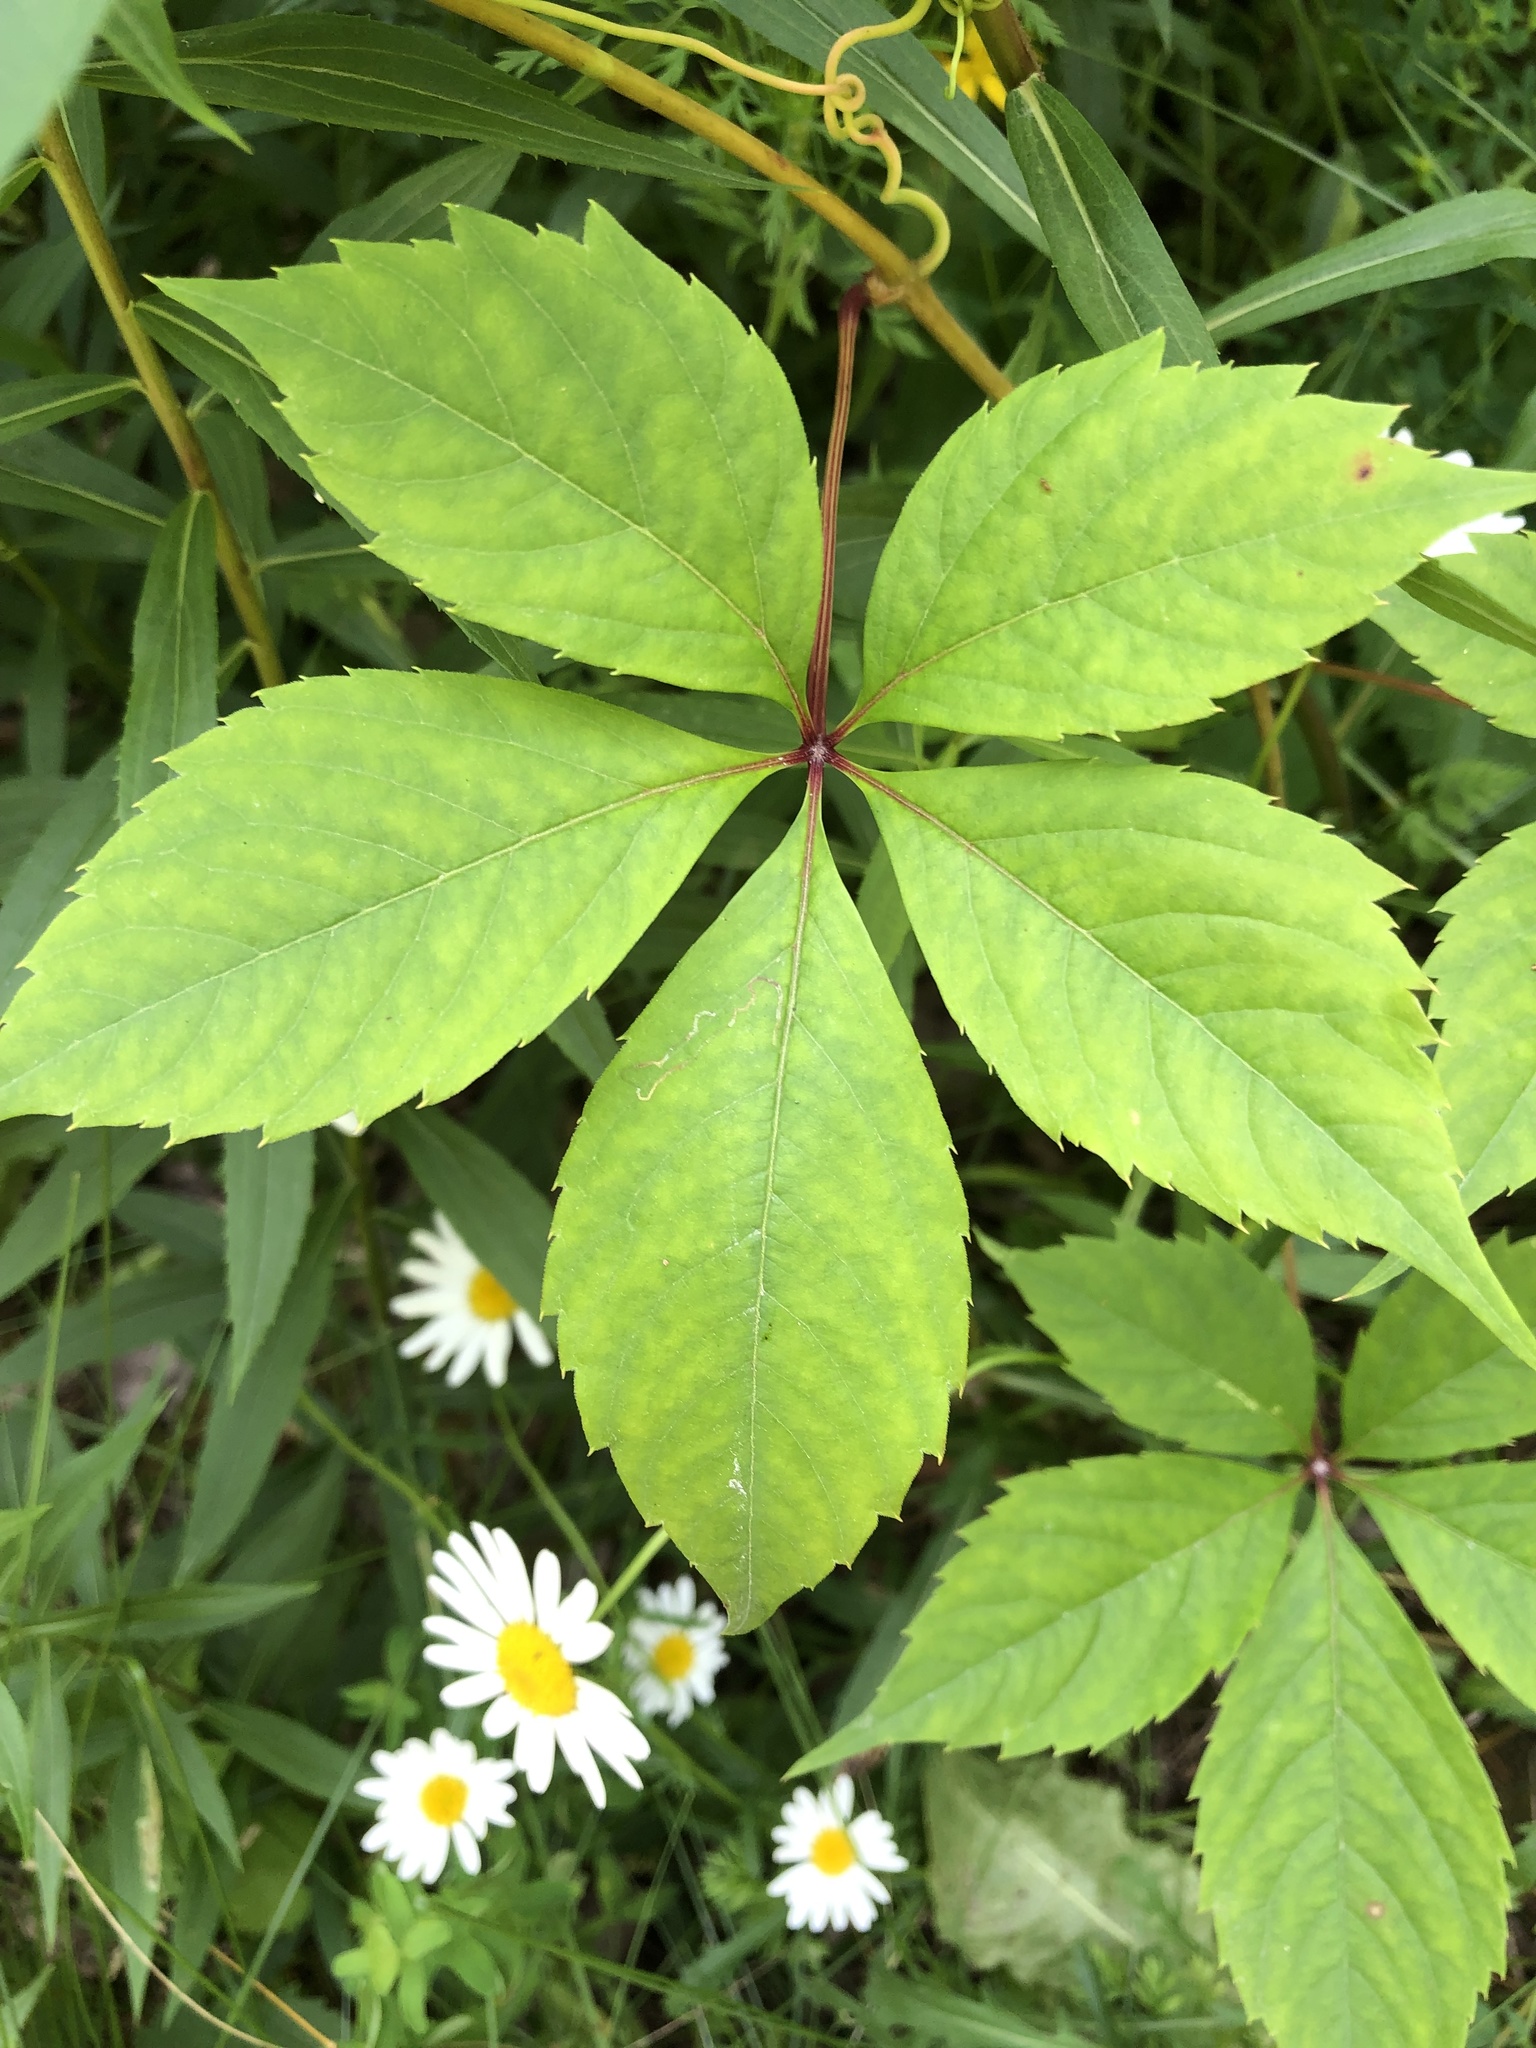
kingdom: Plantae
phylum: Tracheophyta
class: Magnoliopsida
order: Vitales
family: Vitaceae
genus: Parthenocissus
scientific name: Parthenocissus quinquefolia
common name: Virginia-creeper
